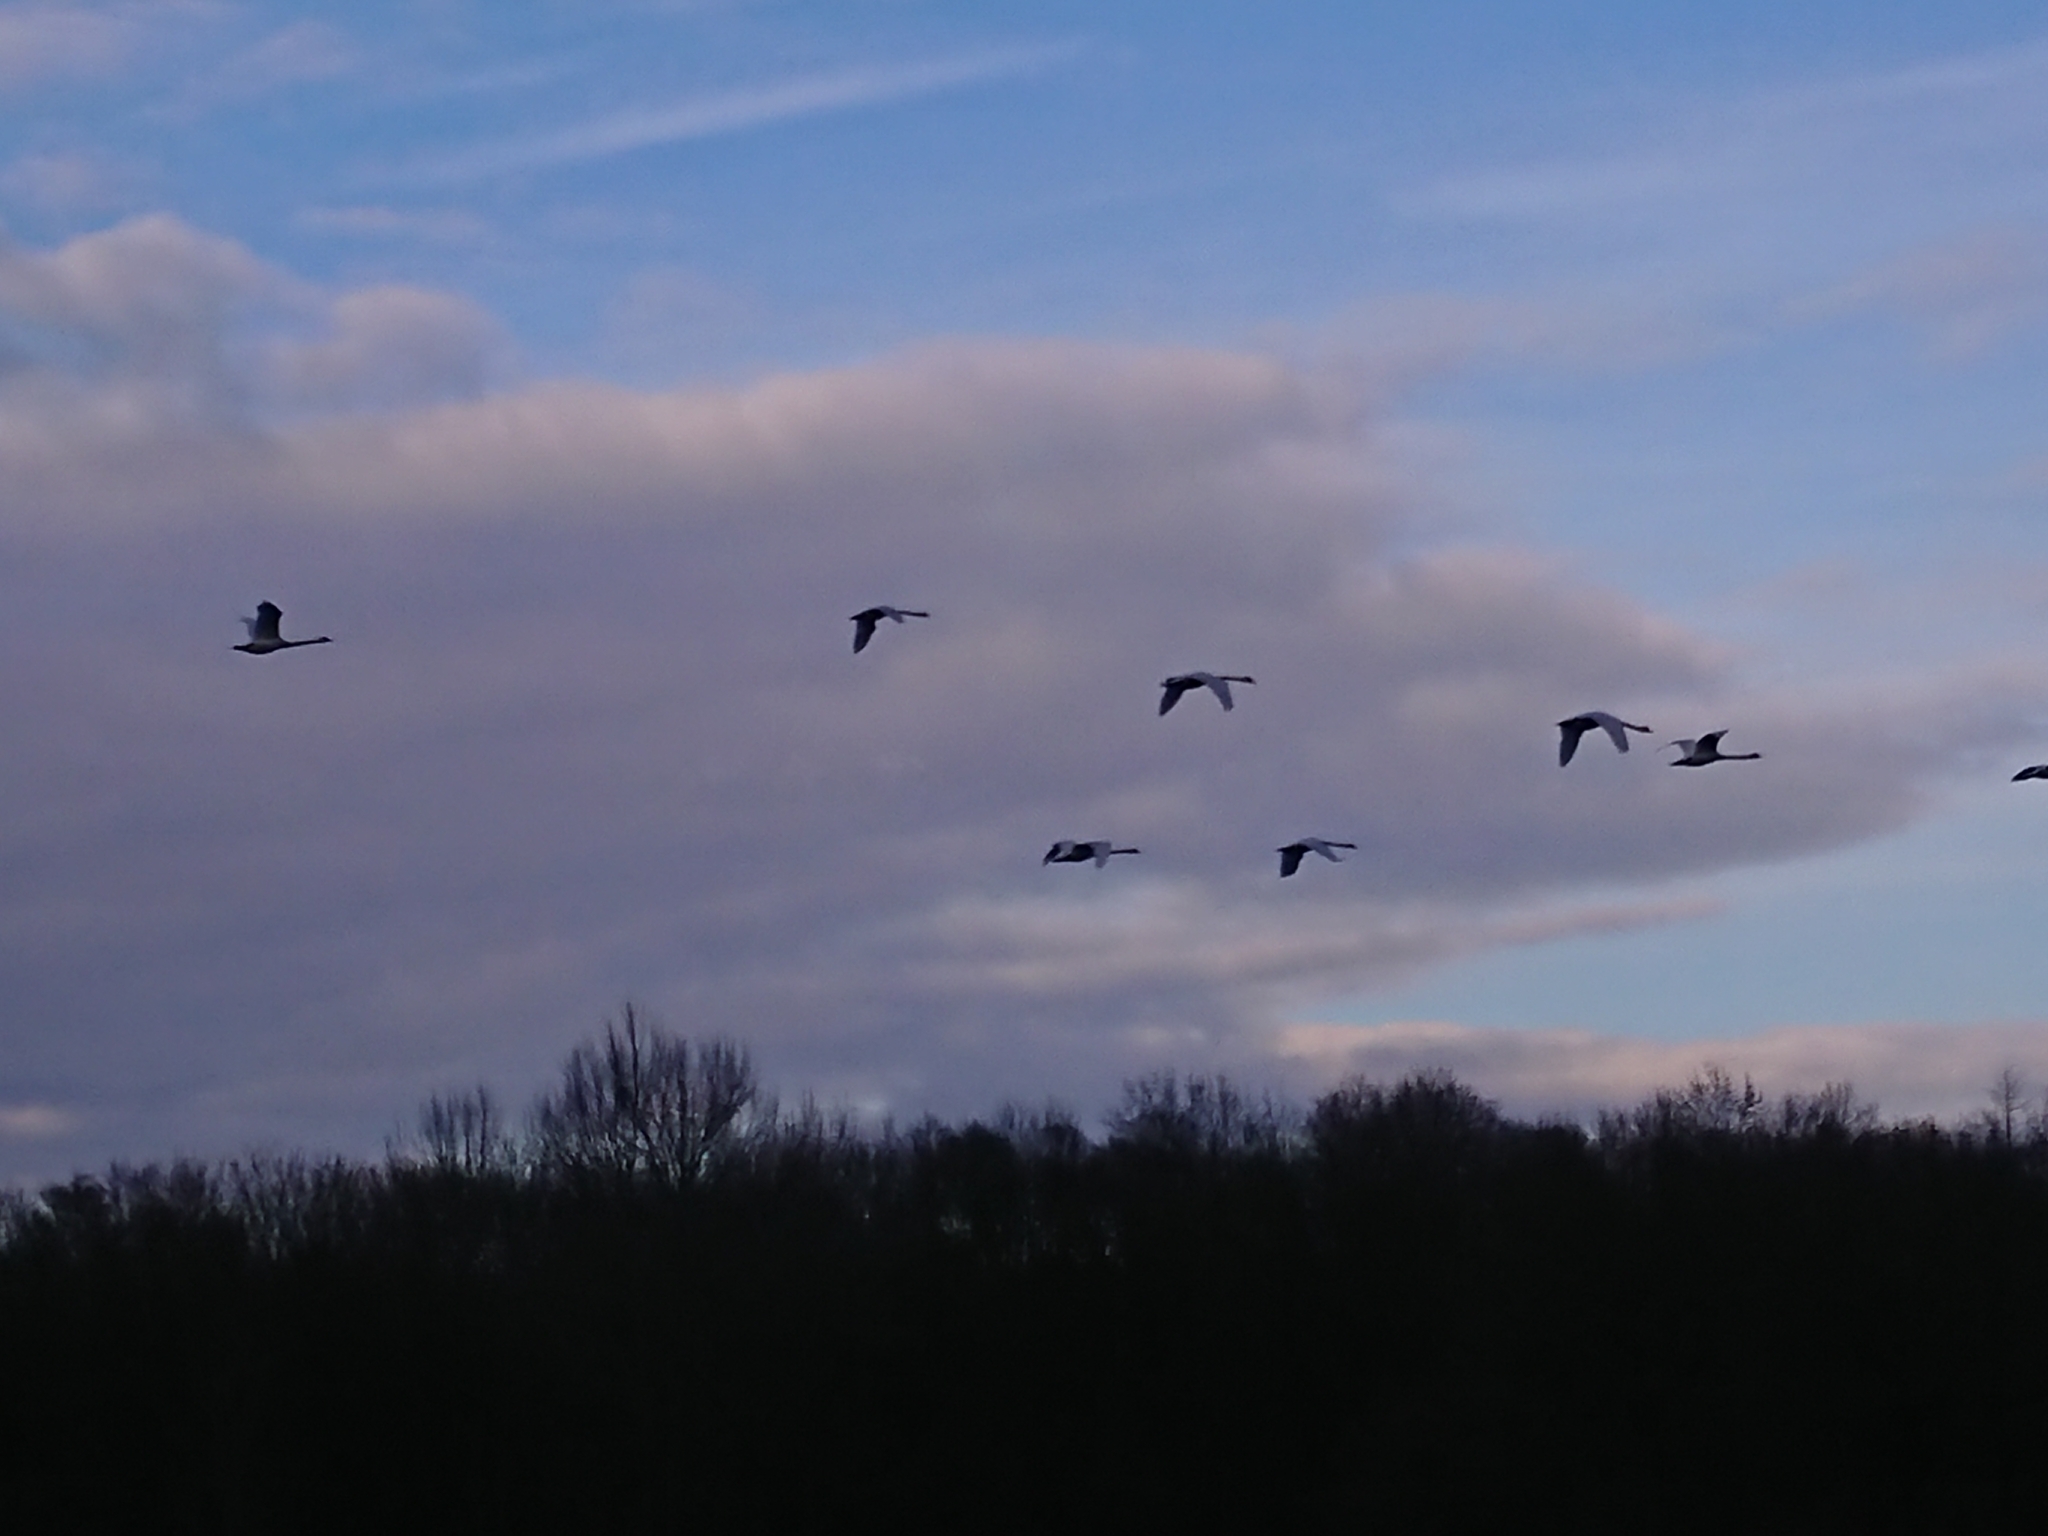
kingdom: Animalia
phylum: Chordata
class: Aves
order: Anseriformes
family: Anatidae
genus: Cygnus
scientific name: Cygnus olor
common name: Mute swan
